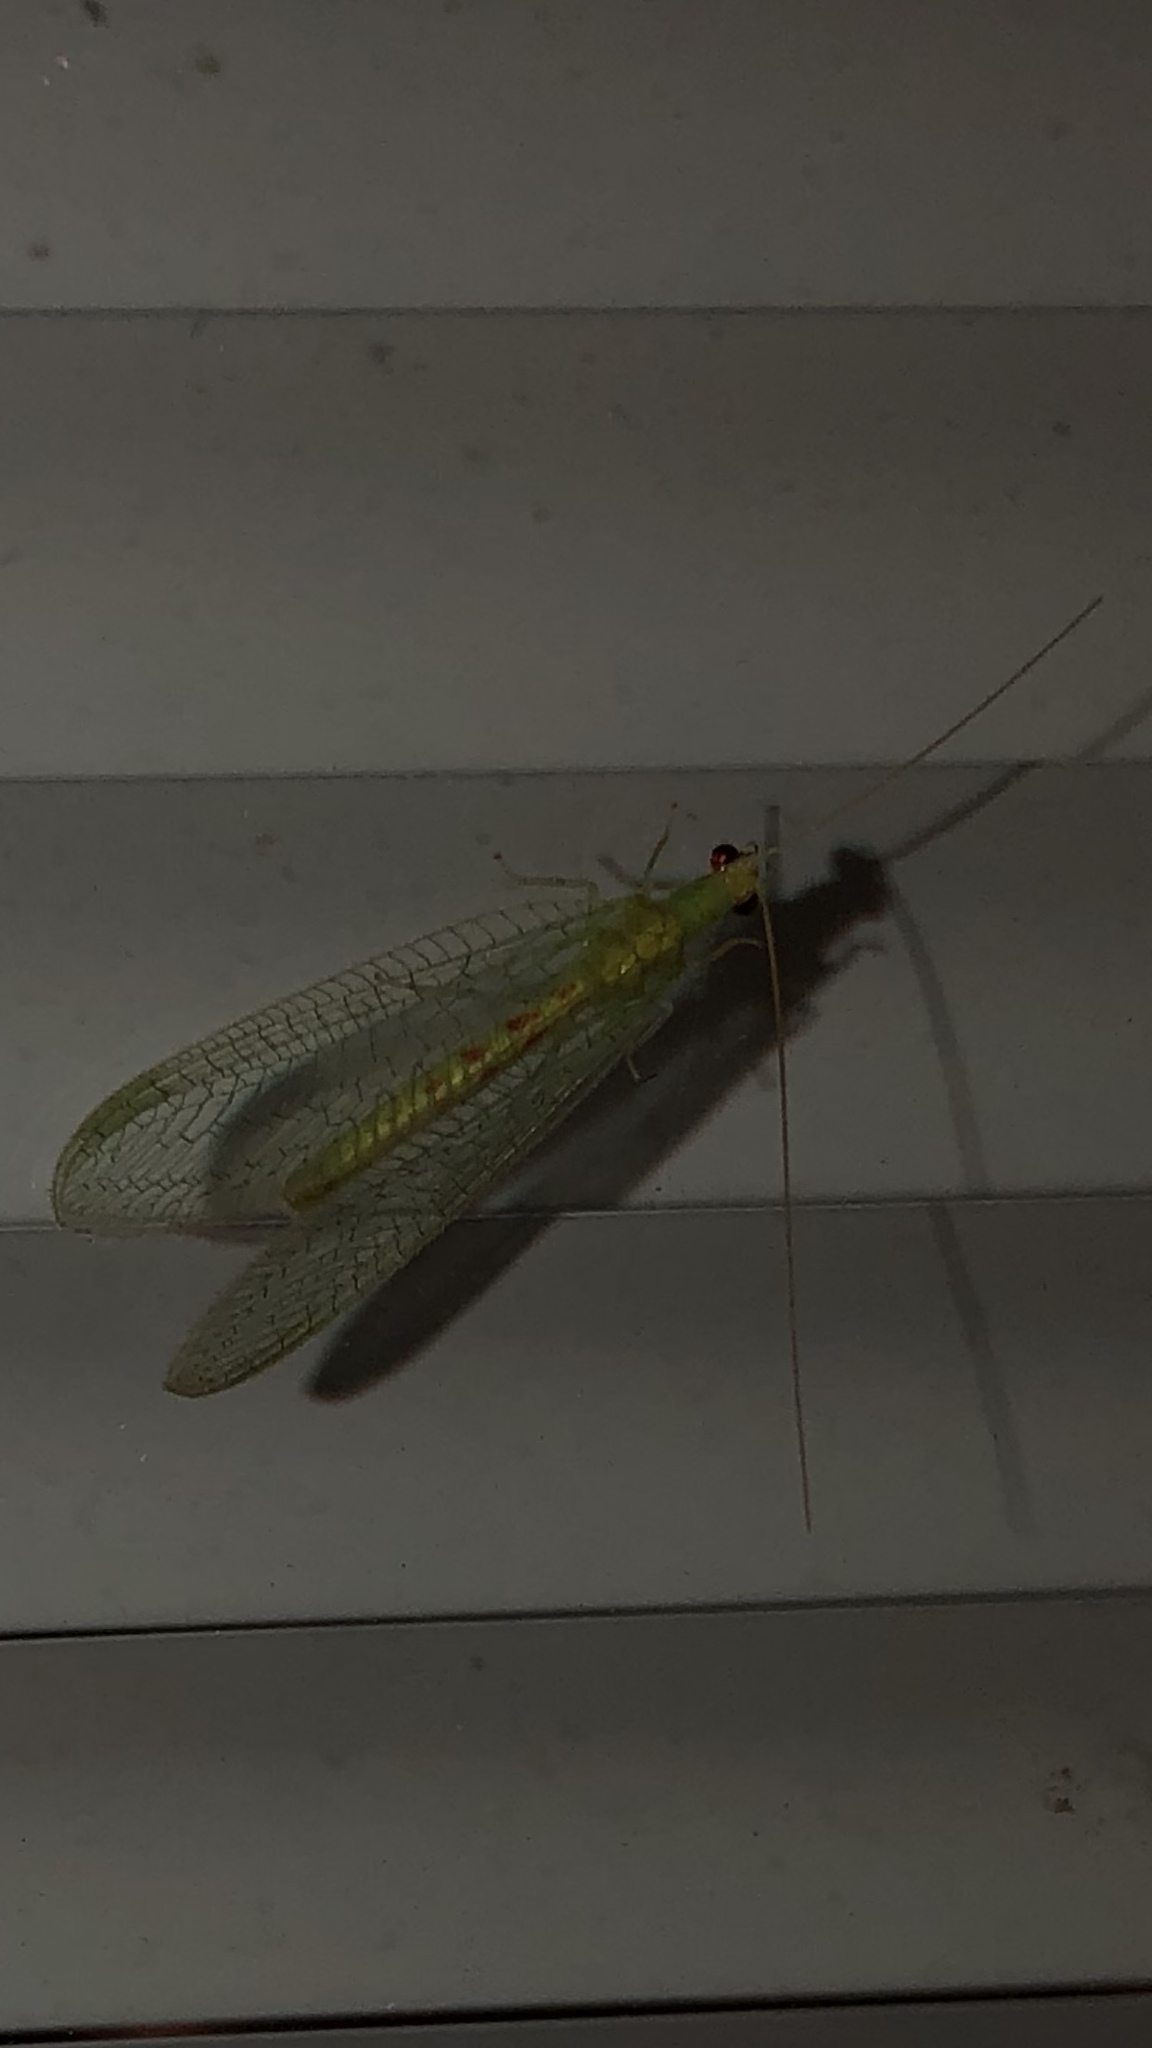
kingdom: Animalia
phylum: Arthropoda
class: Insecta
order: Neuroptera
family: Chrysopidae
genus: Chrysopa
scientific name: Chrysopa quadripunctata
